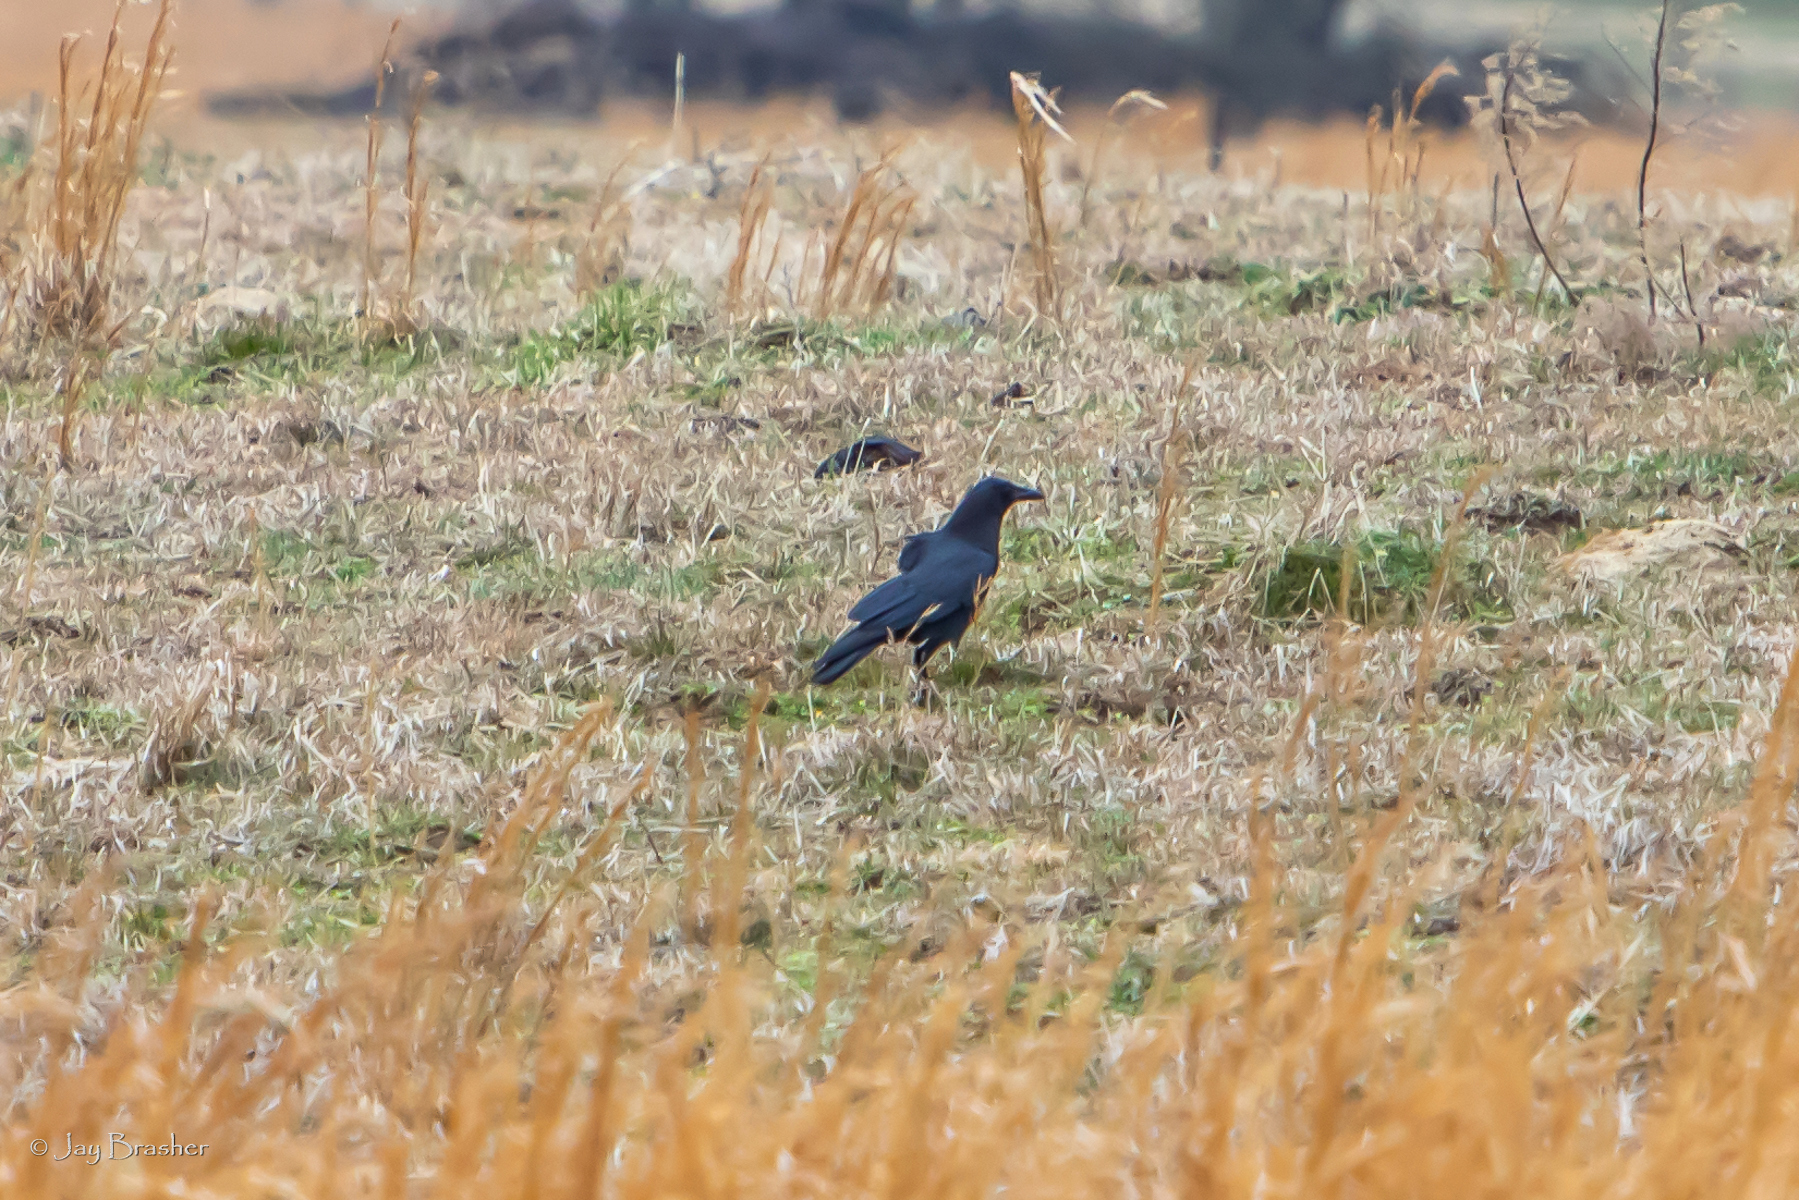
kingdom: Animalia
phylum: Chordata
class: Aves
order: Passeriformes
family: Corvidae
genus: Corvus
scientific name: Corvus brachyrhynchos
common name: American crow
